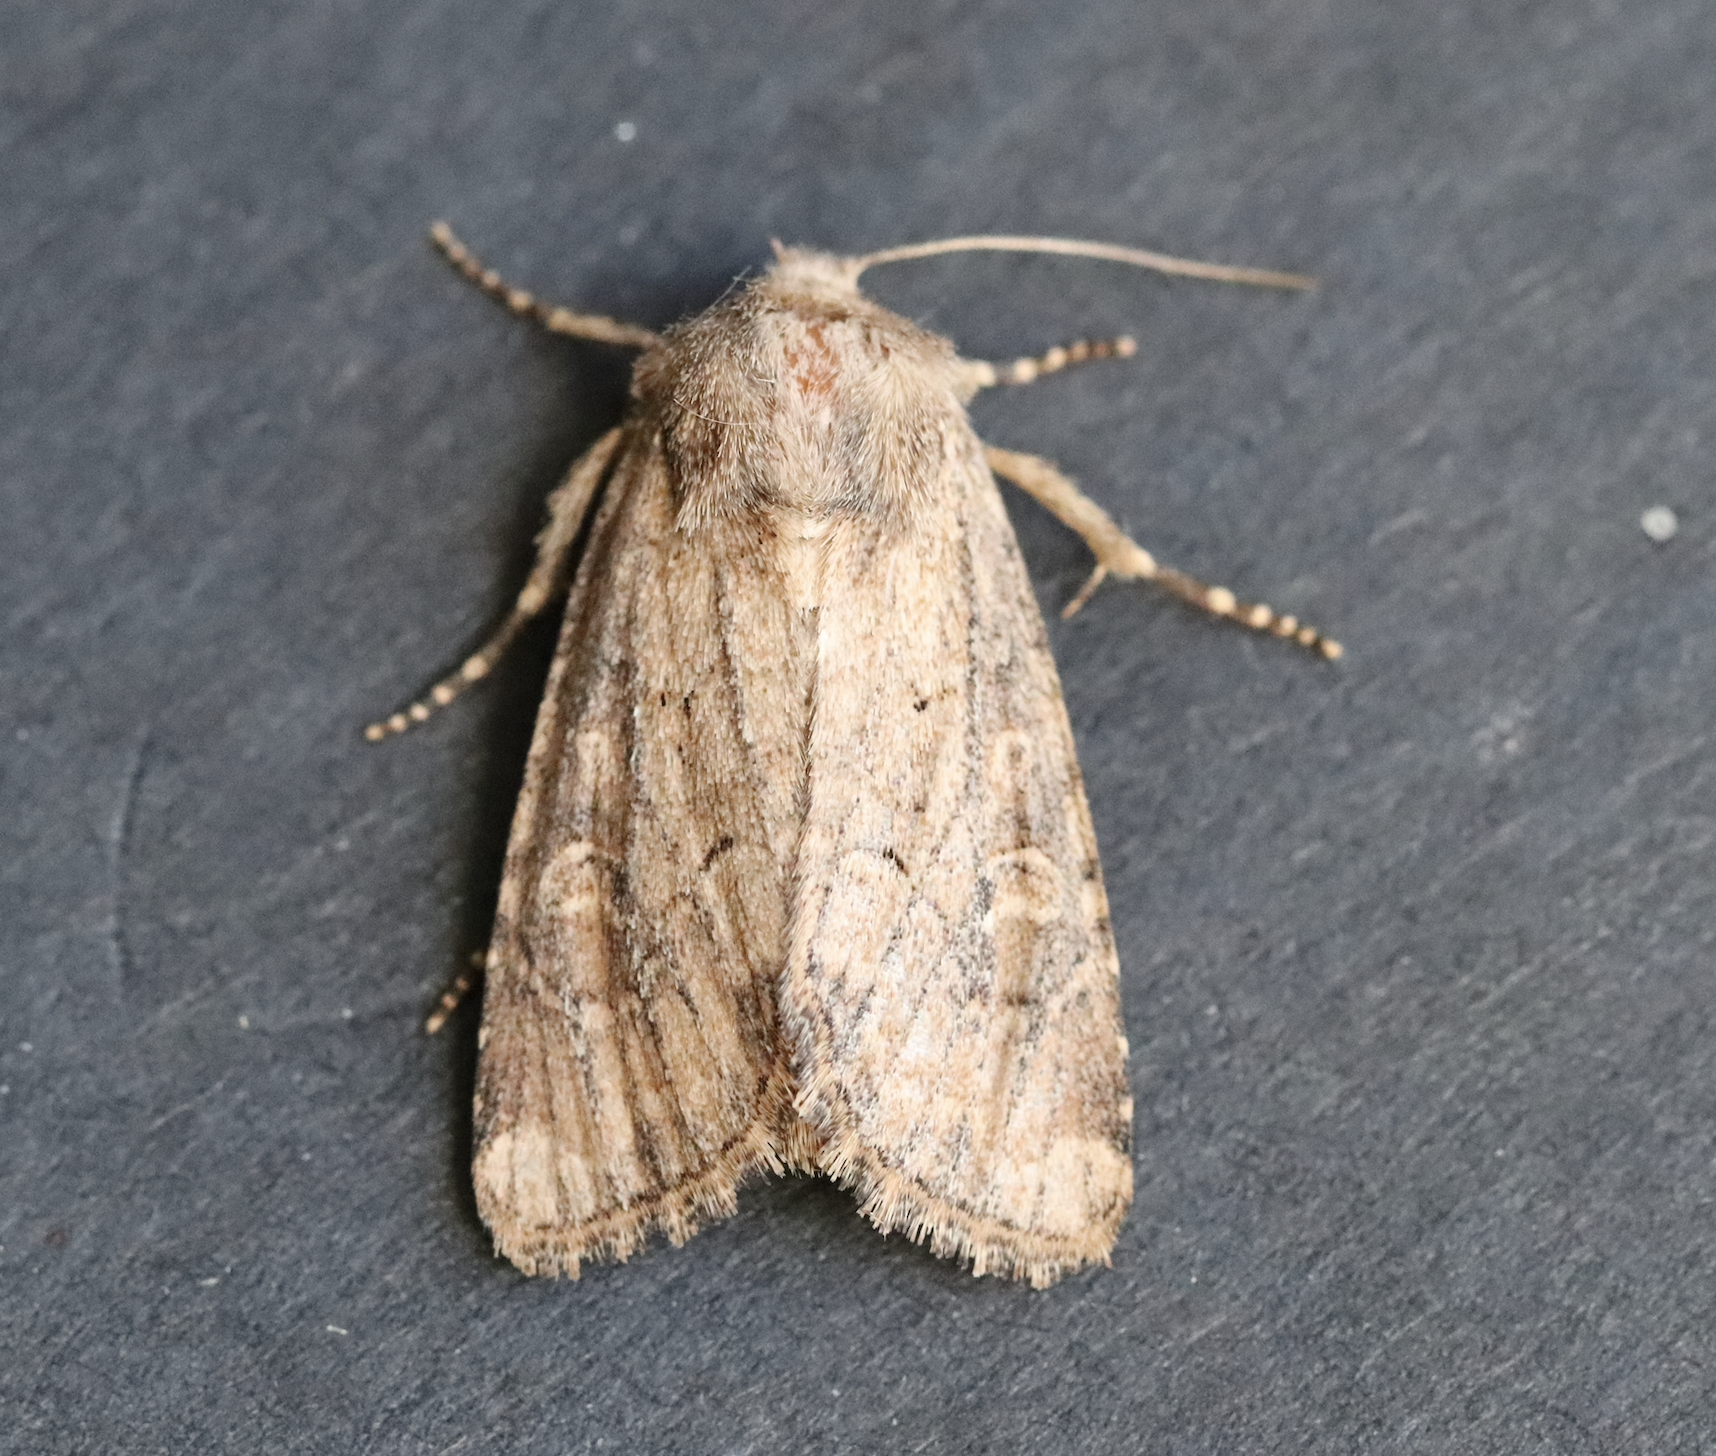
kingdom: Animalia
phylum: Arthropoda
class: Insecta
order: Lepidoptera
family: Noctuidae
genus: Luperina
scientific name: Luperina testacea
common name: Flounced rustic
